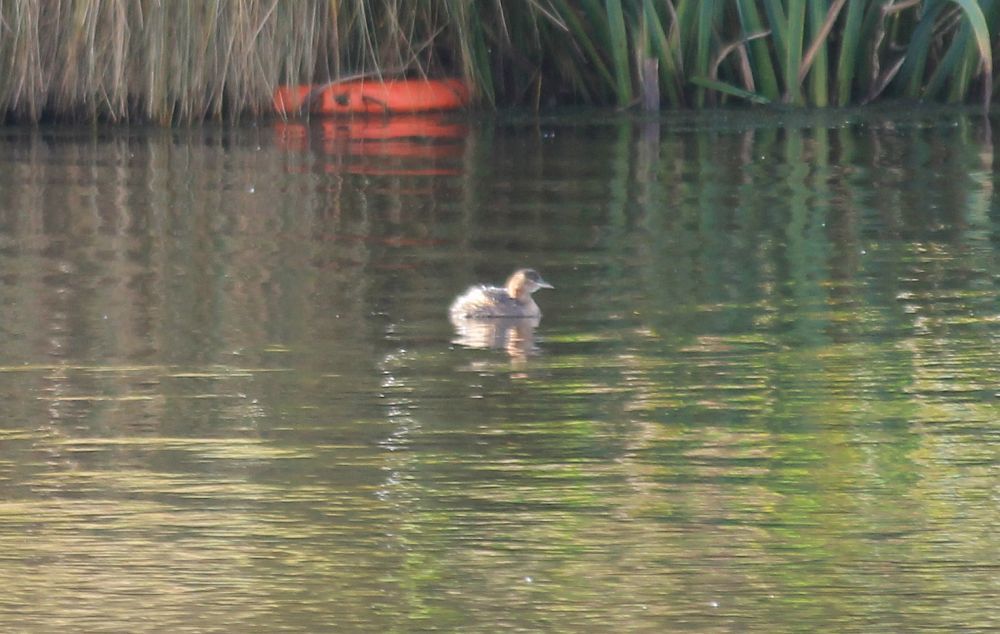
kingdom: Animalia
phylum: Chordata
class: Aves
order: Podicipediformes
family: Podicipedidae
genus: Tachybaptus
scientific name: Tachybaptus ruficollis
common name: Little grebe
